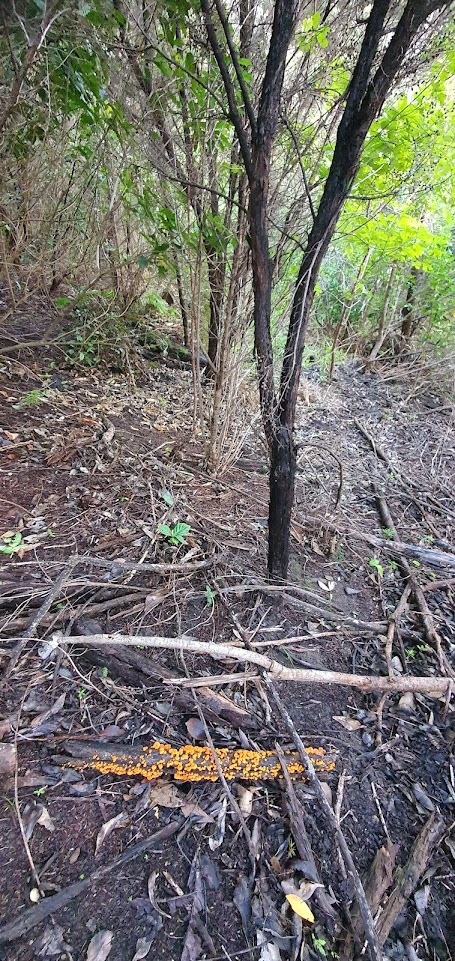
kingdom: Fungi
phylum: Basidiomycota
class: Agaricomycetes
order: Agaricales
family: Mycenaceae
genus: Favolaschia
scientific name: Favolaschia claudopus
